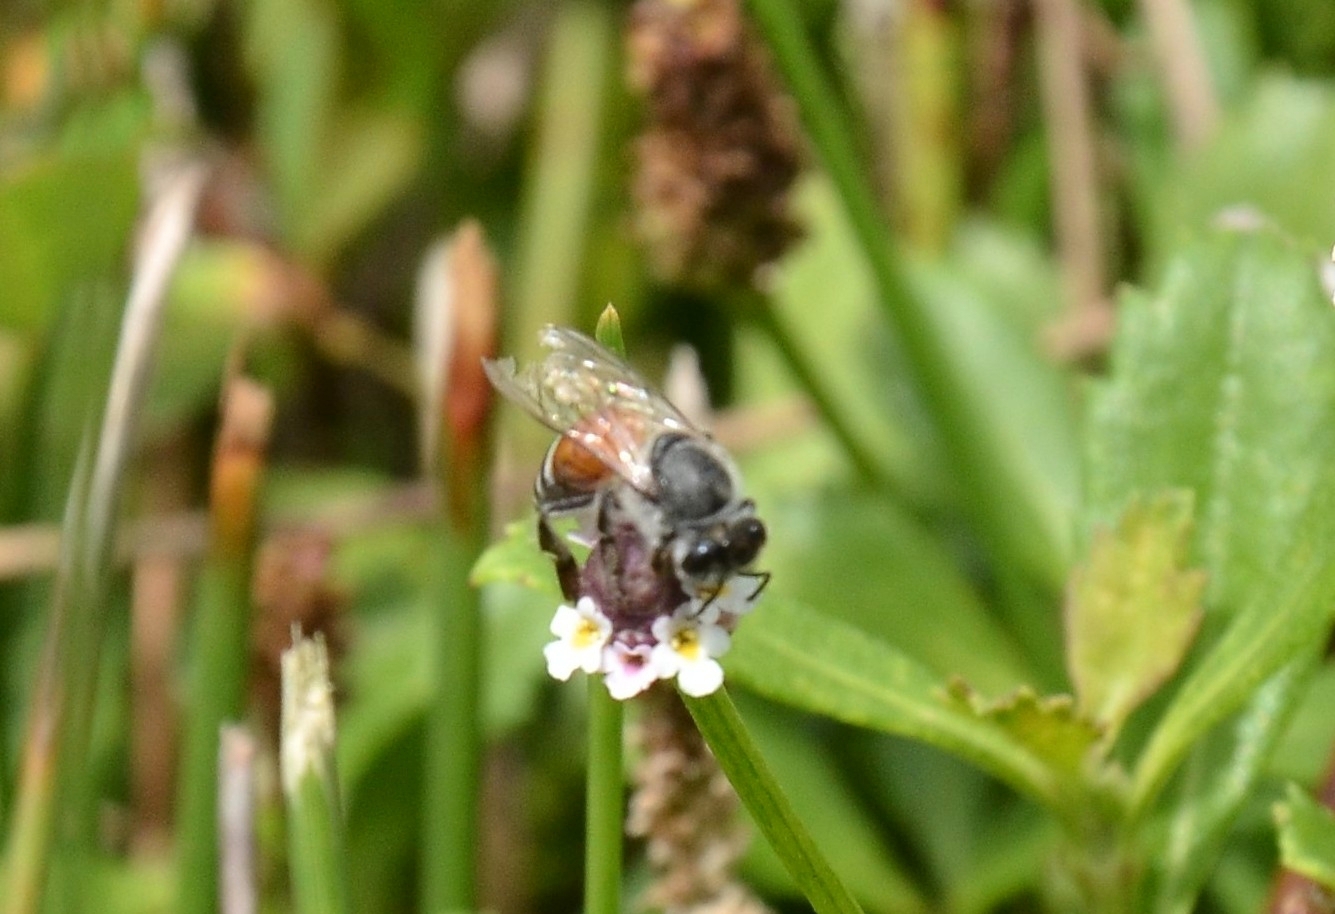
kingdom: Animalia
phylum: Arthropoda
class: Insecta
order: Hymenoptera
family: Apidae
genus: Apis
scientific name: Apis florea
